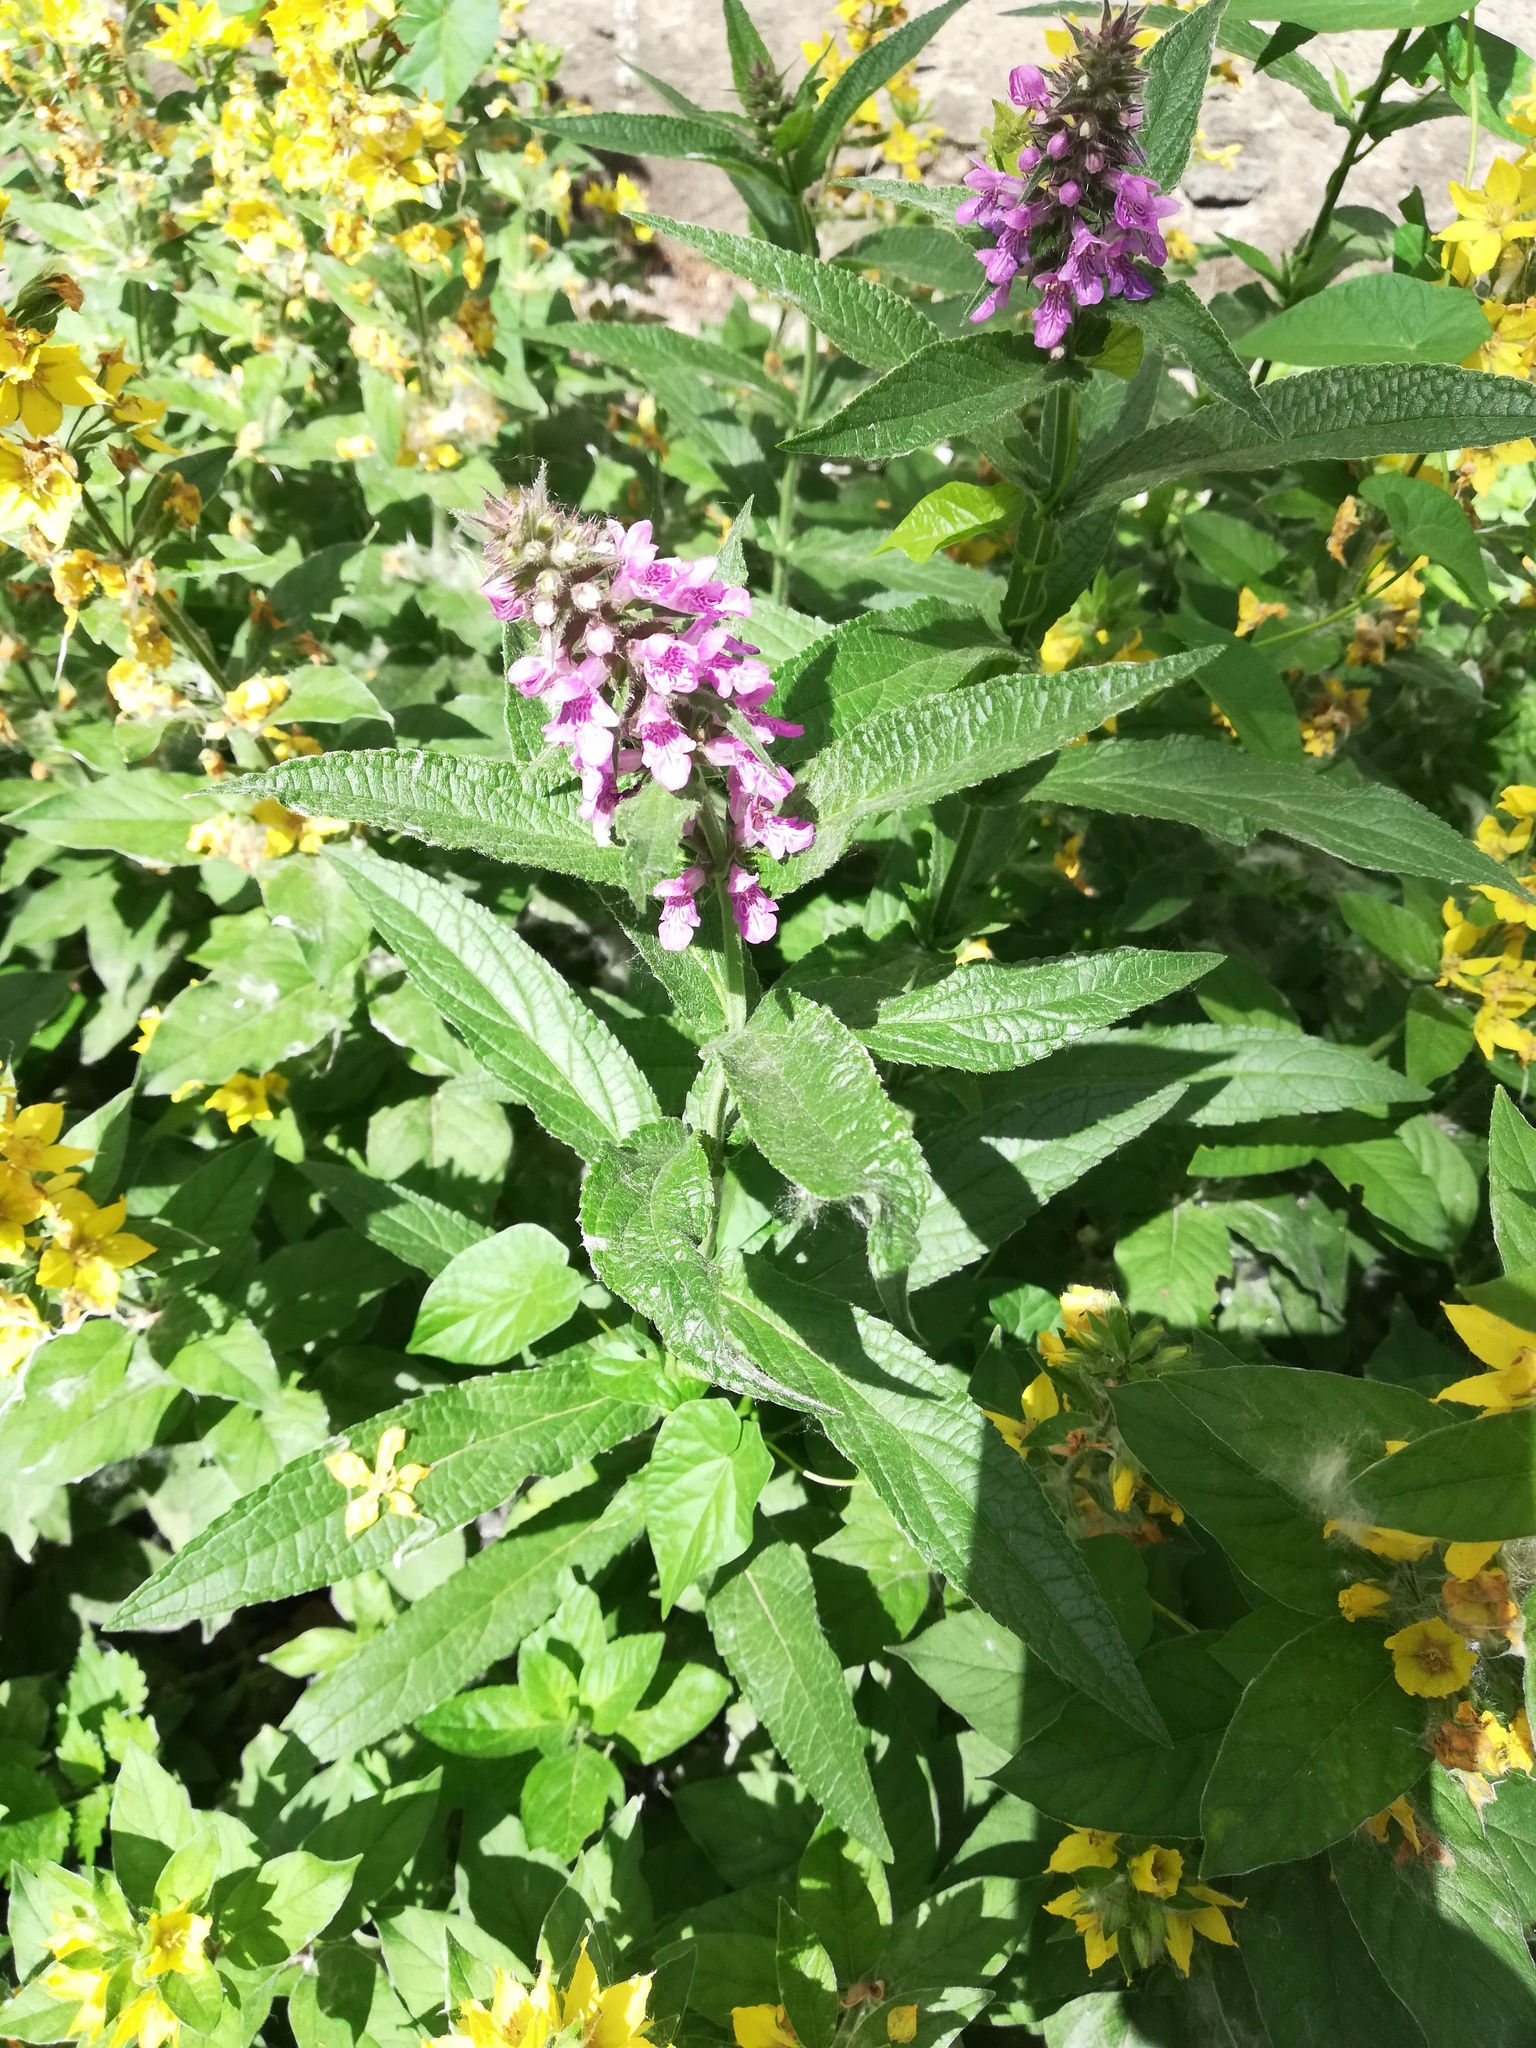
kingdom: Plantae
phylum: Tracheophyta
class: Magnoliopsida
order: Lamiales
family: Lamiaceae
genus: Stachys
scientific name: Stachys palustris
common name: Marsh woundwort
